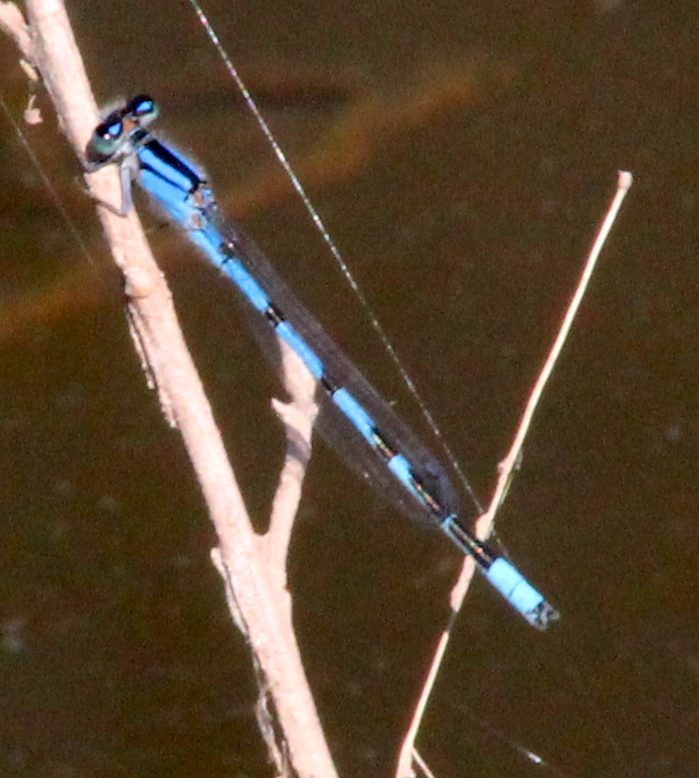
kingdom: Animalia
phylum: Arthropoda
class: Insecta
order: Odonata
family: Coenagrionidae
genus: Enallagma
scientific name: Enallagma civile
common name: Damselfly
